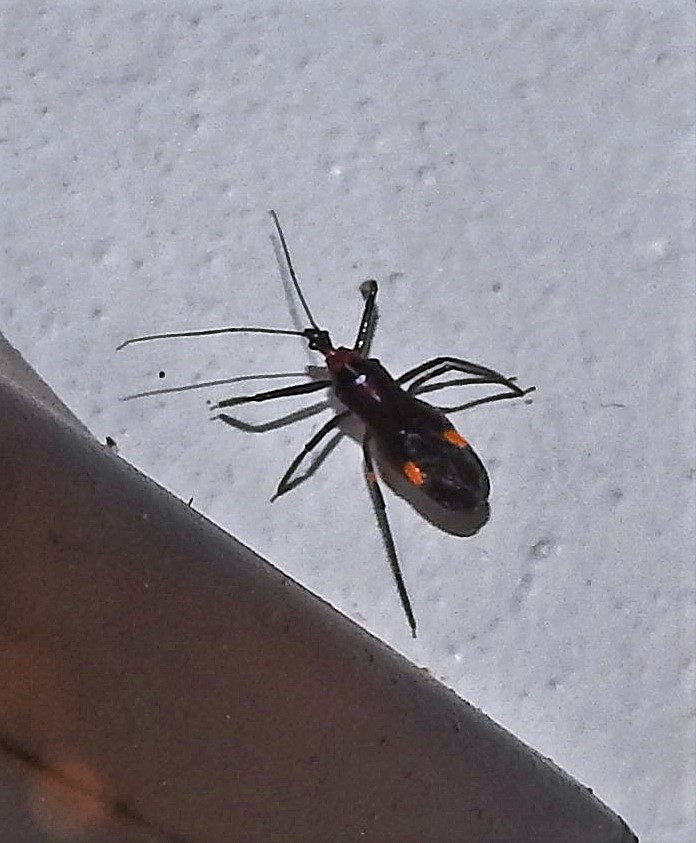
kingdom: Animalia
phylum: Arthropoda
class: Insecta
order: Hemiptera
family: Reduviidae
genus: Graptocleptes
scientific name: Graptocleptes bicolor
